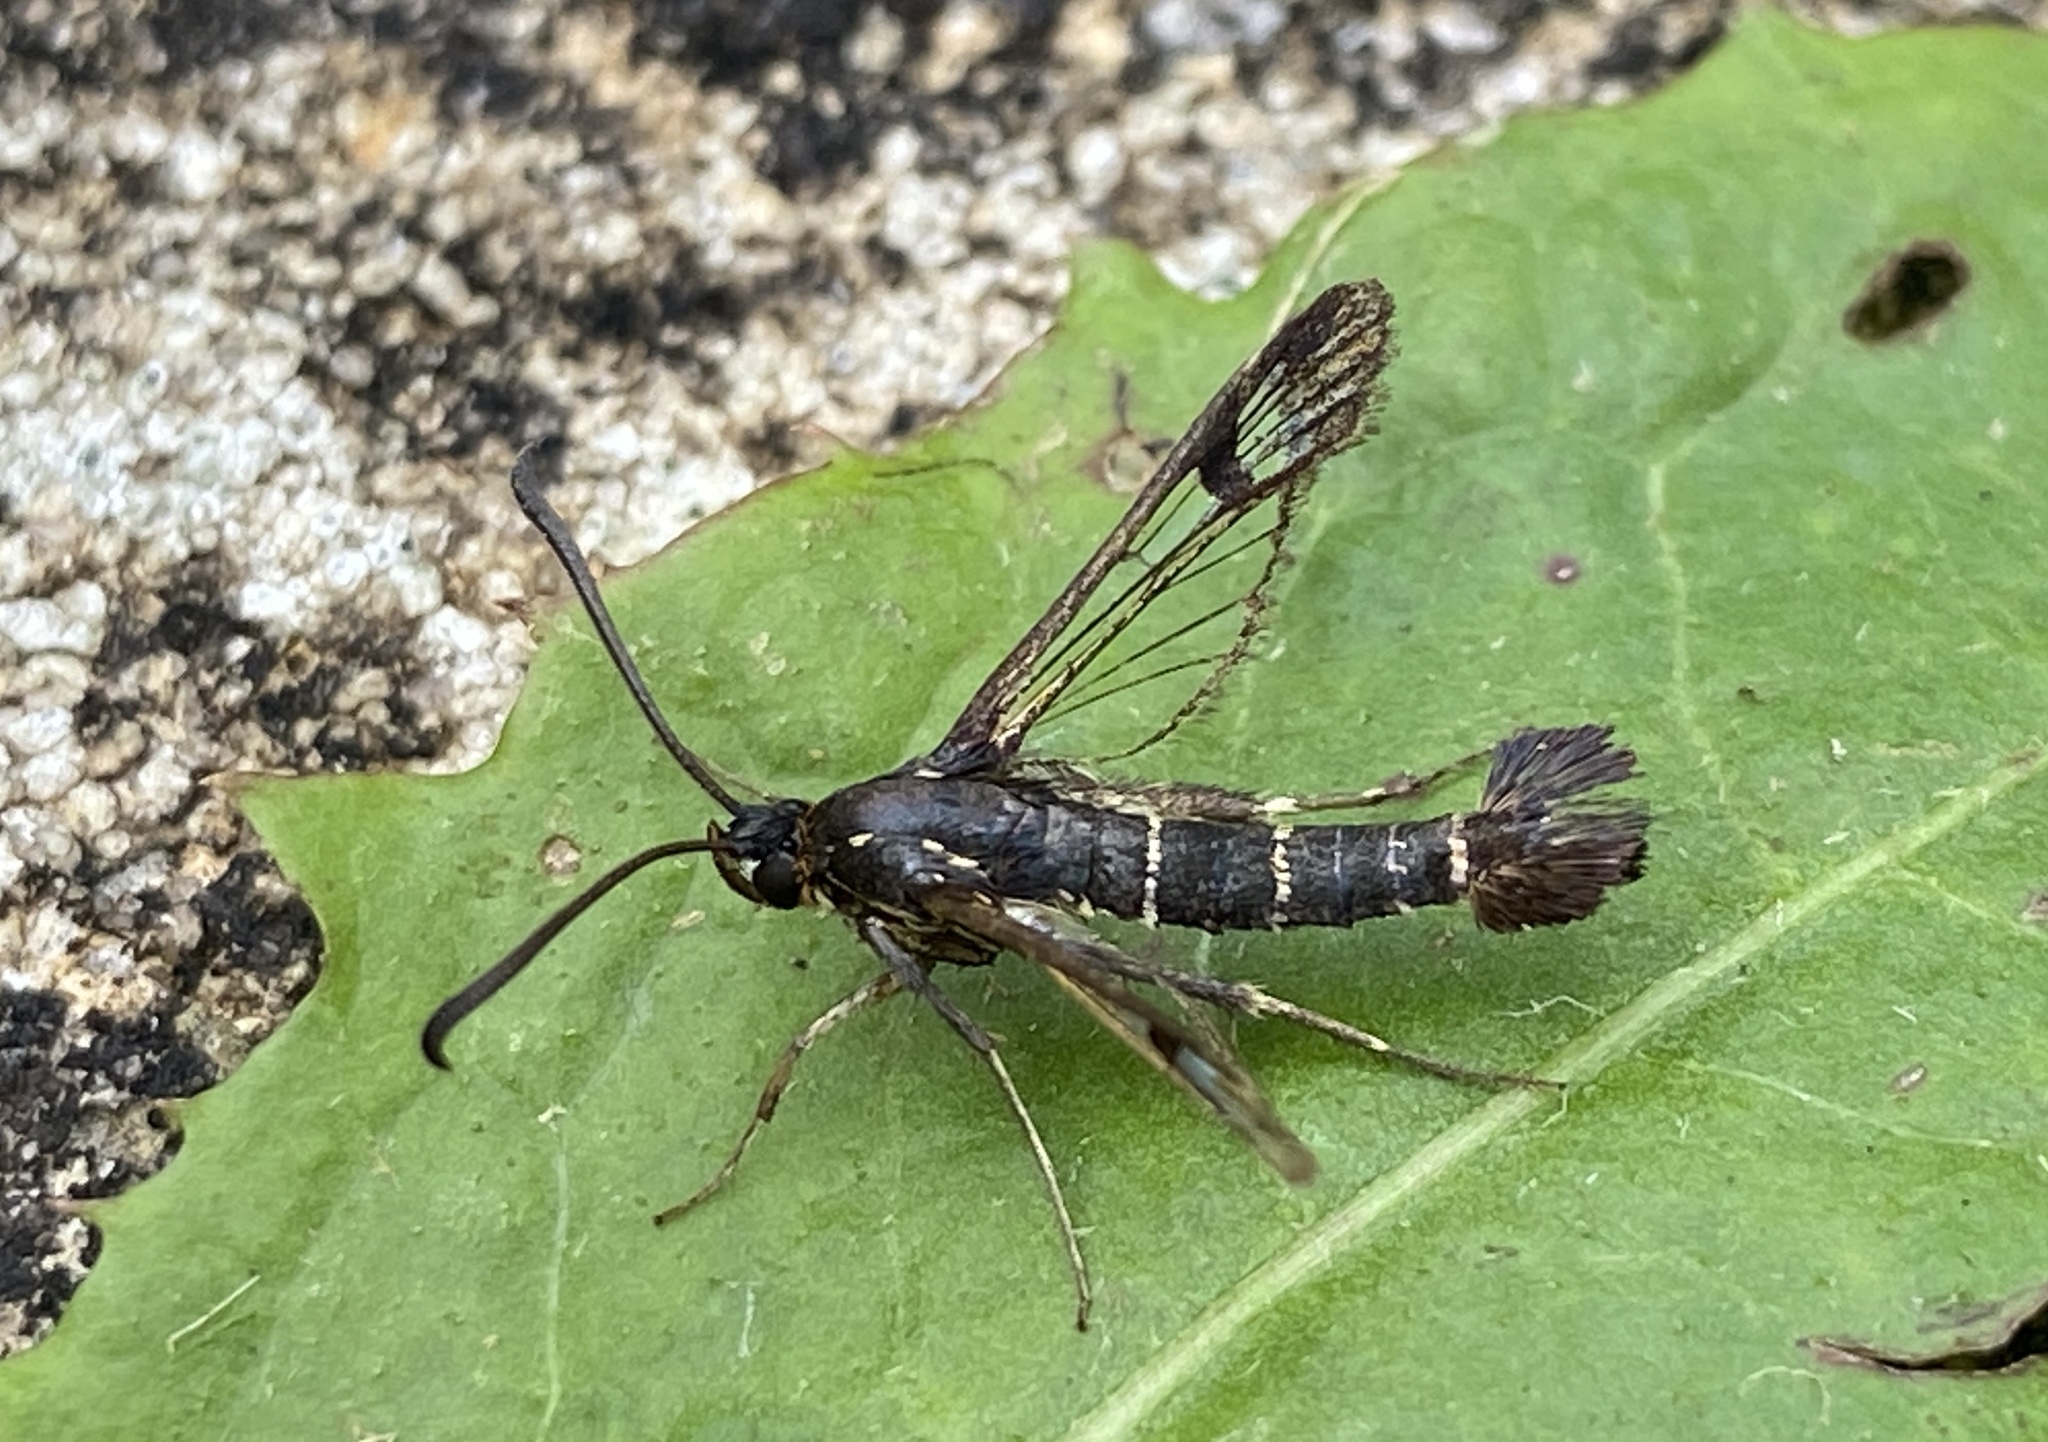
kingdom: Animalia
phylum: Arthropoda
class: Insecta
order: Lepidoptera
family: Sesiidae
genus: Synanthedon
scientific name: Synanthedon tipuliformis
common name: Currant clearwing
